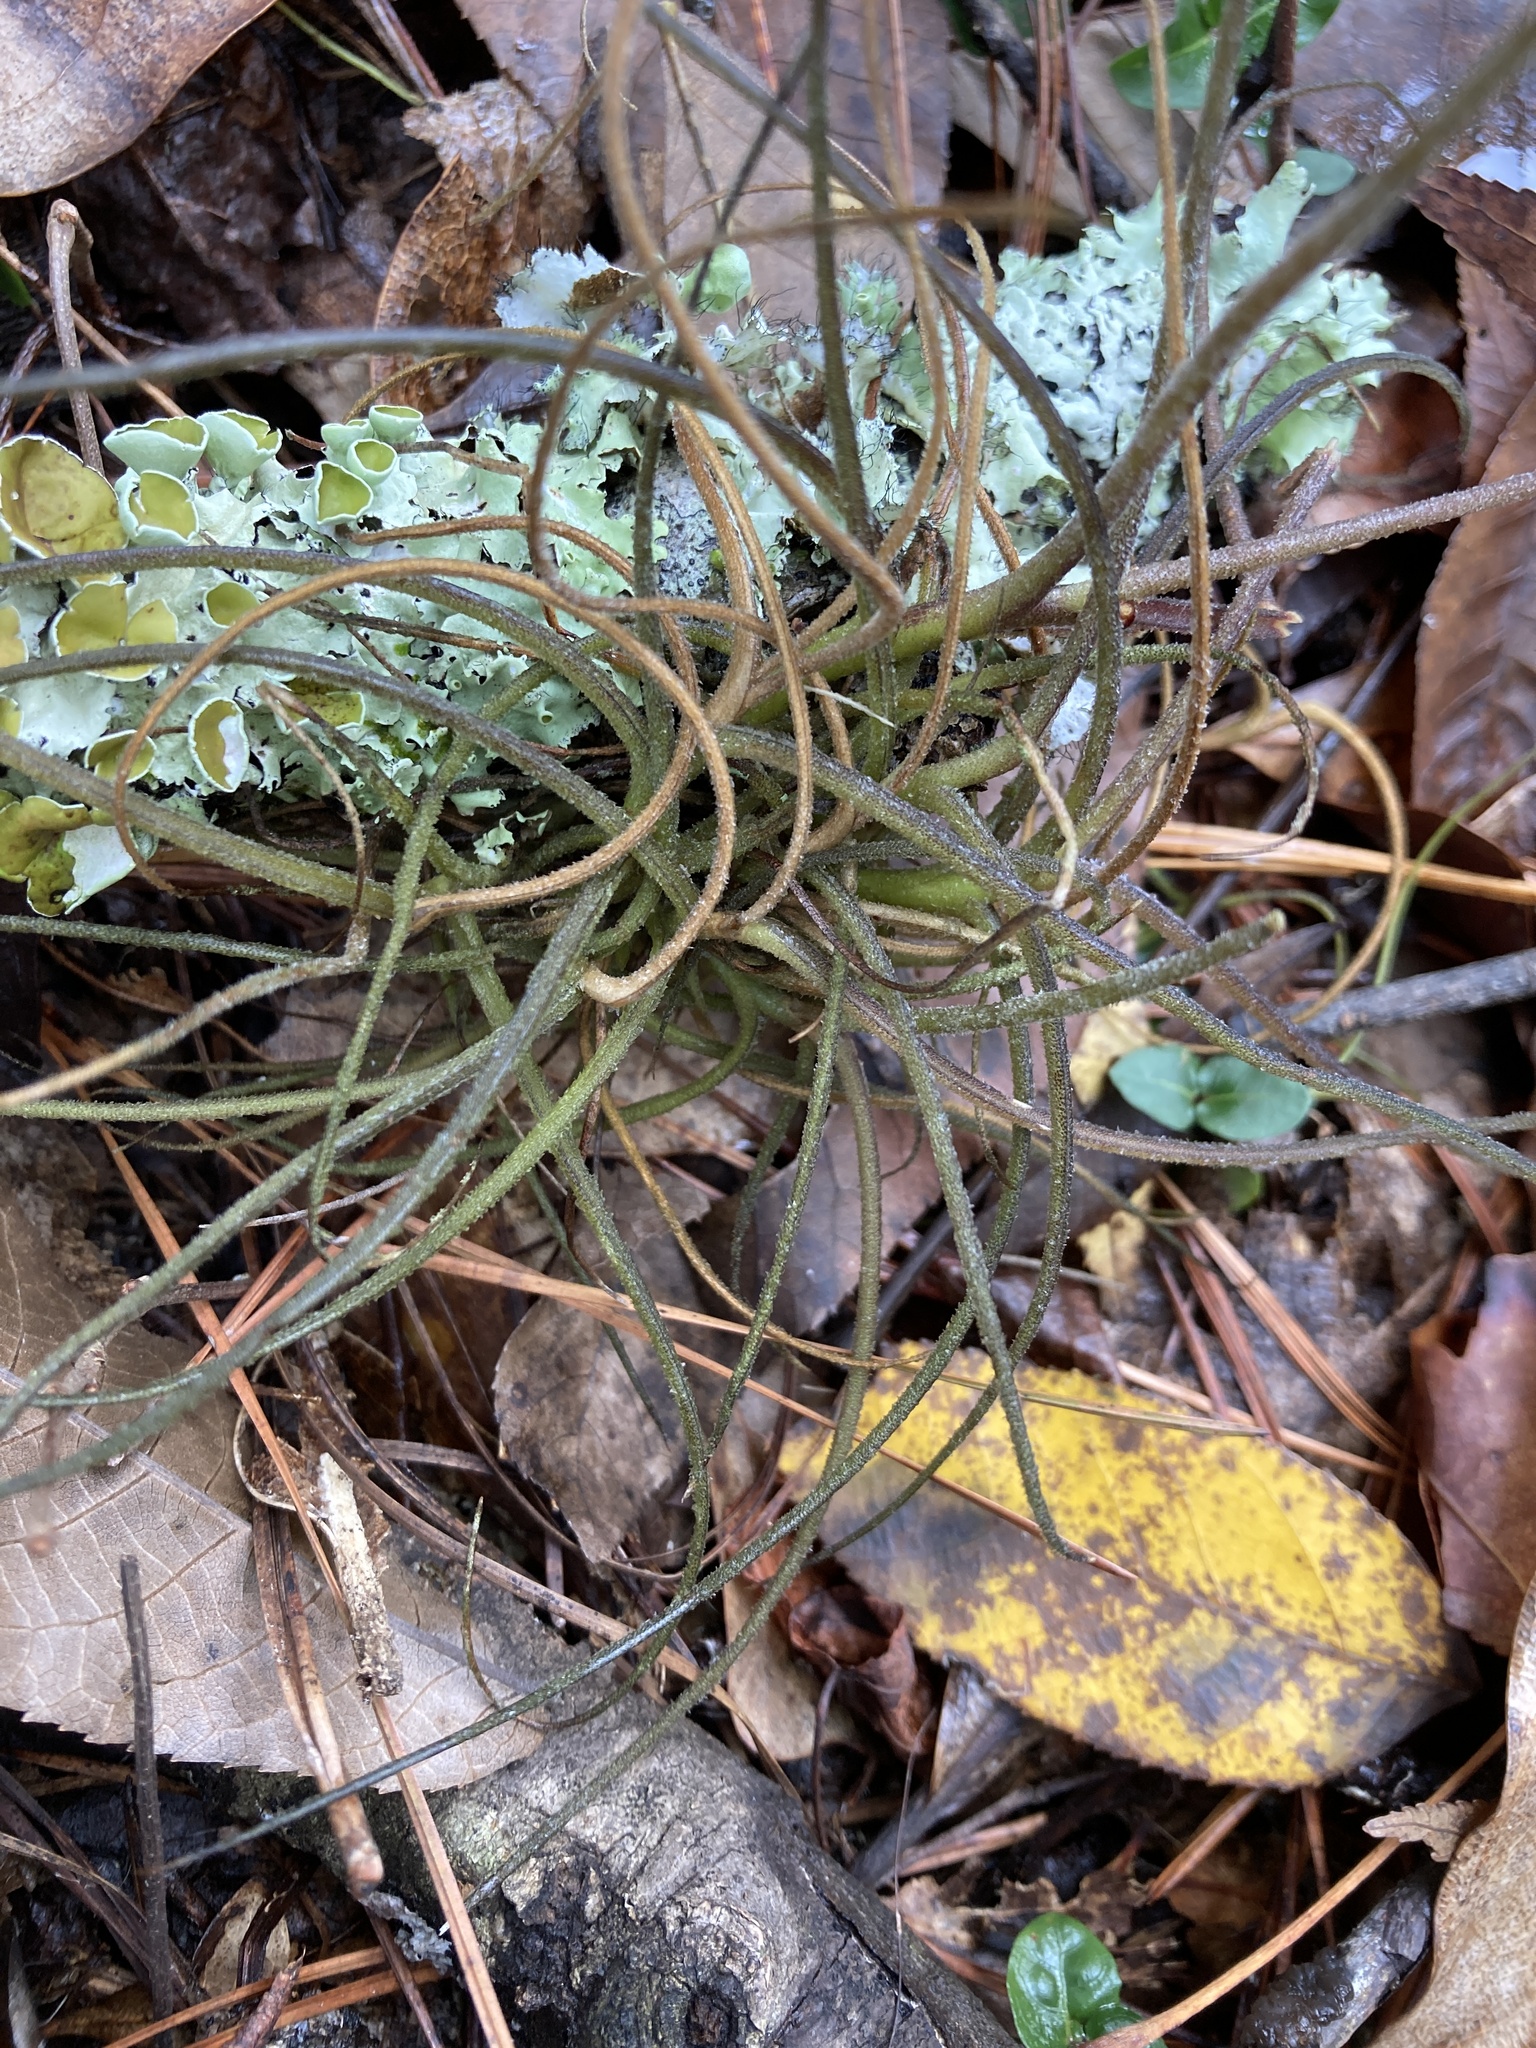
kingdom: Plantae
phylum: Tracheophyta
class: Liliopsida
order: Poales
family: Bromeliaceae
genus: Tillandsia
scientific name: Tillandsia recurvata
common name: Small ballmoss
